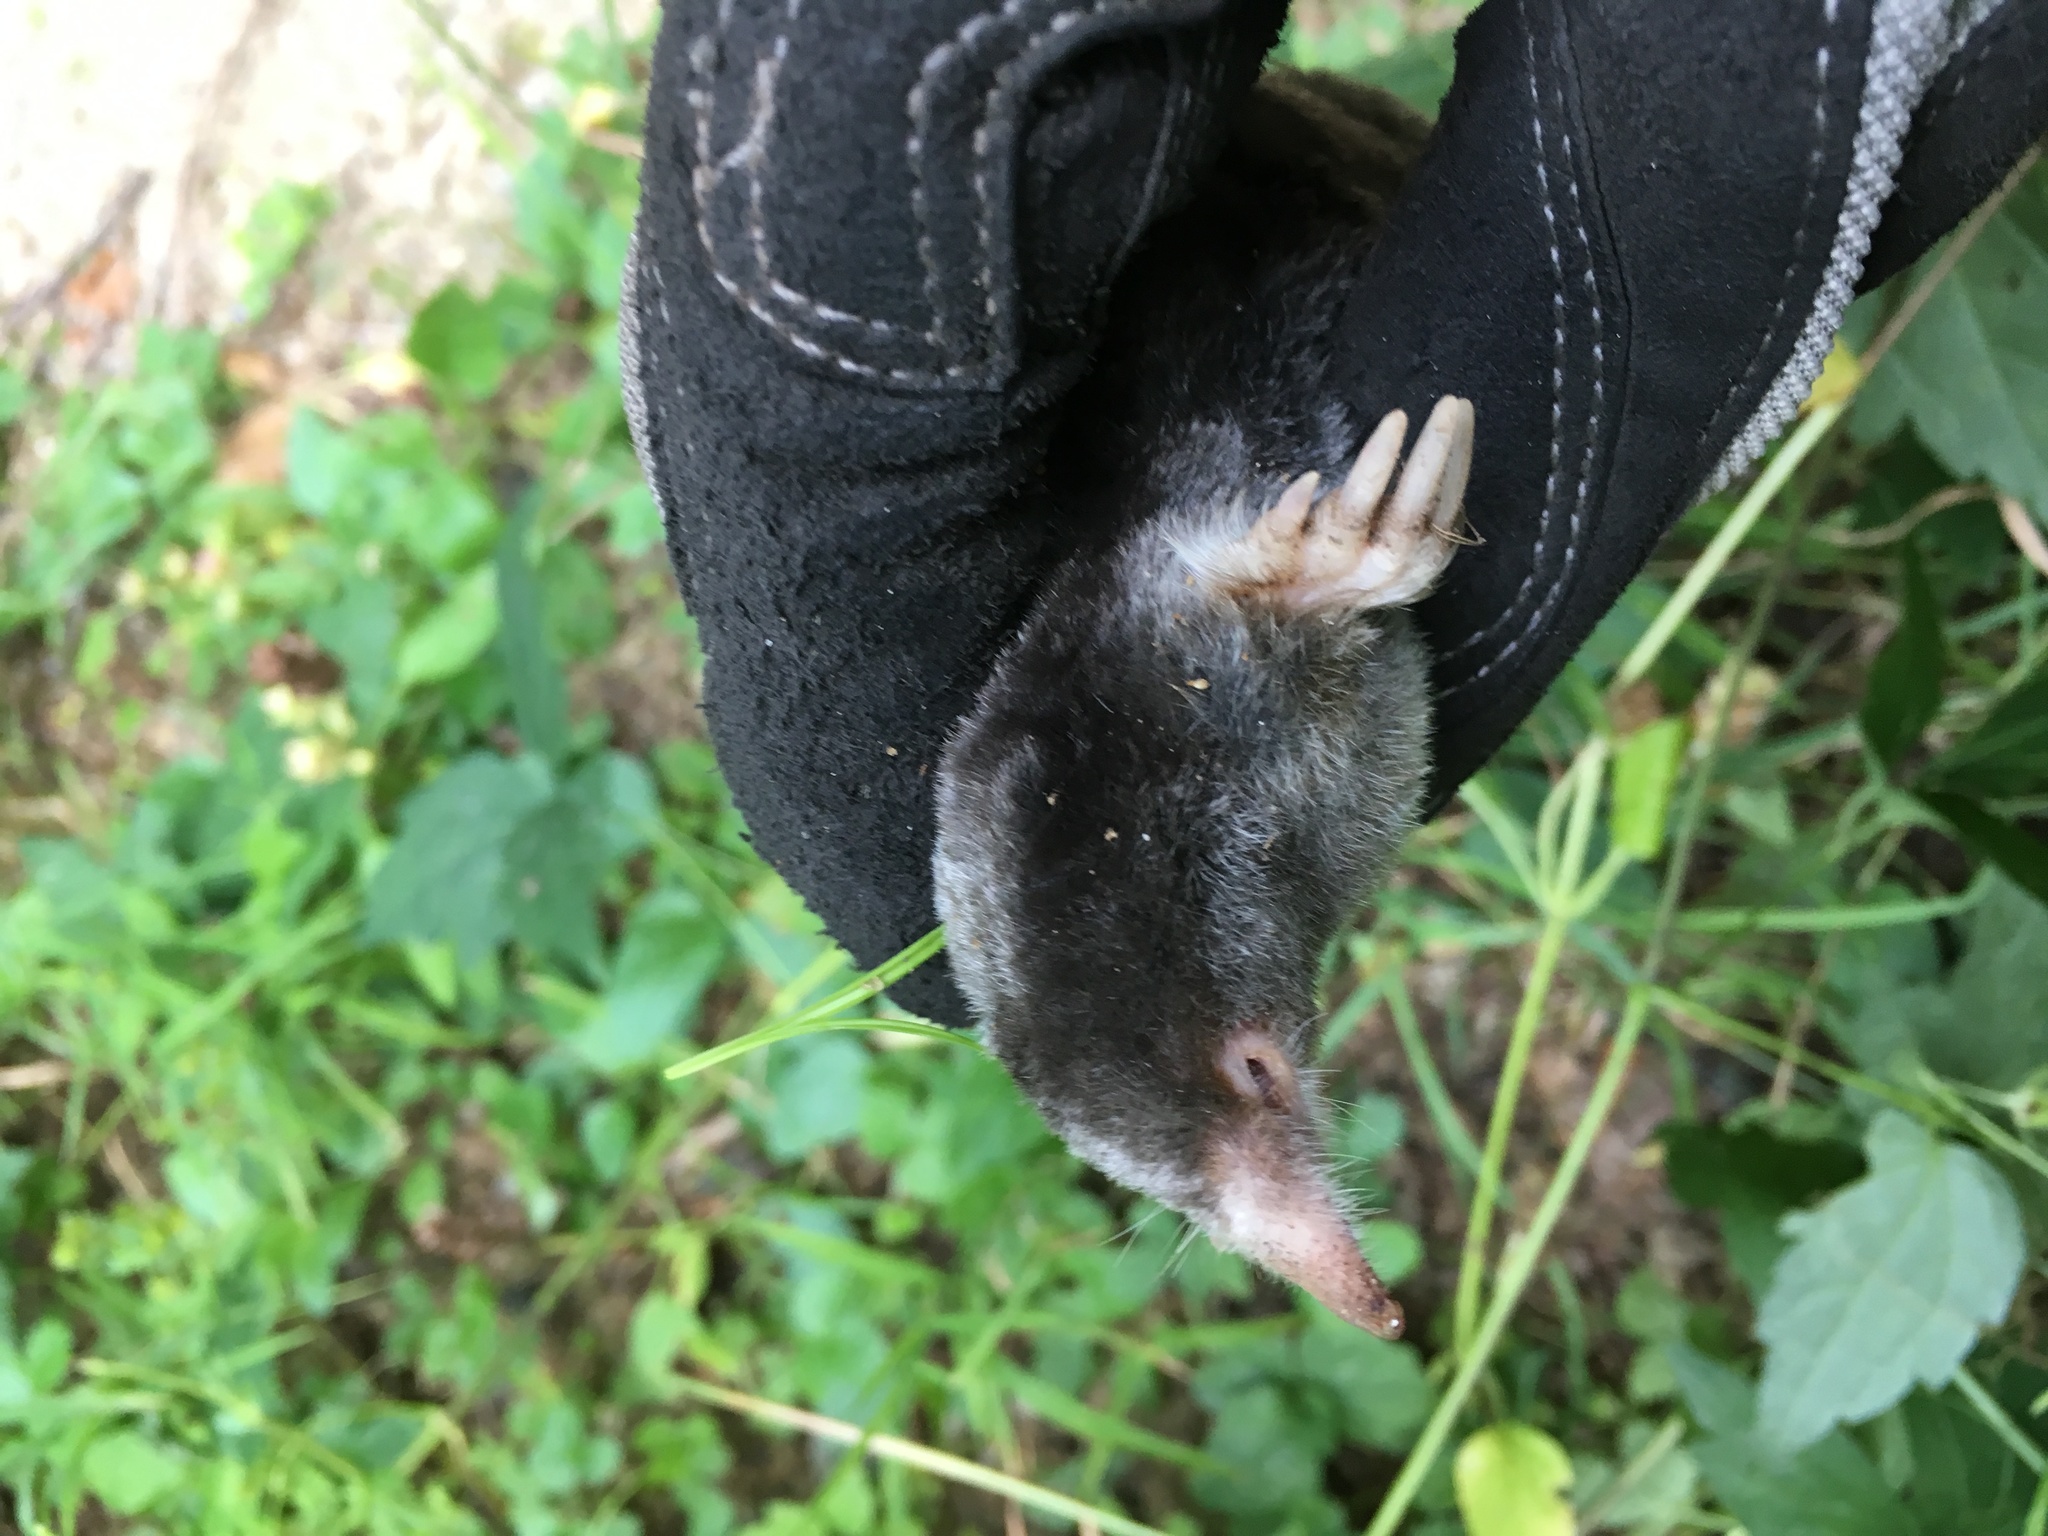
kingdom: Animalia
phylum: Chordata
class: Mammalia
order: Soricomorpha
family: Talpidae
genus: Parascalops
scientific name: Parascalops breweri
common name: Hairy-tailed mole
